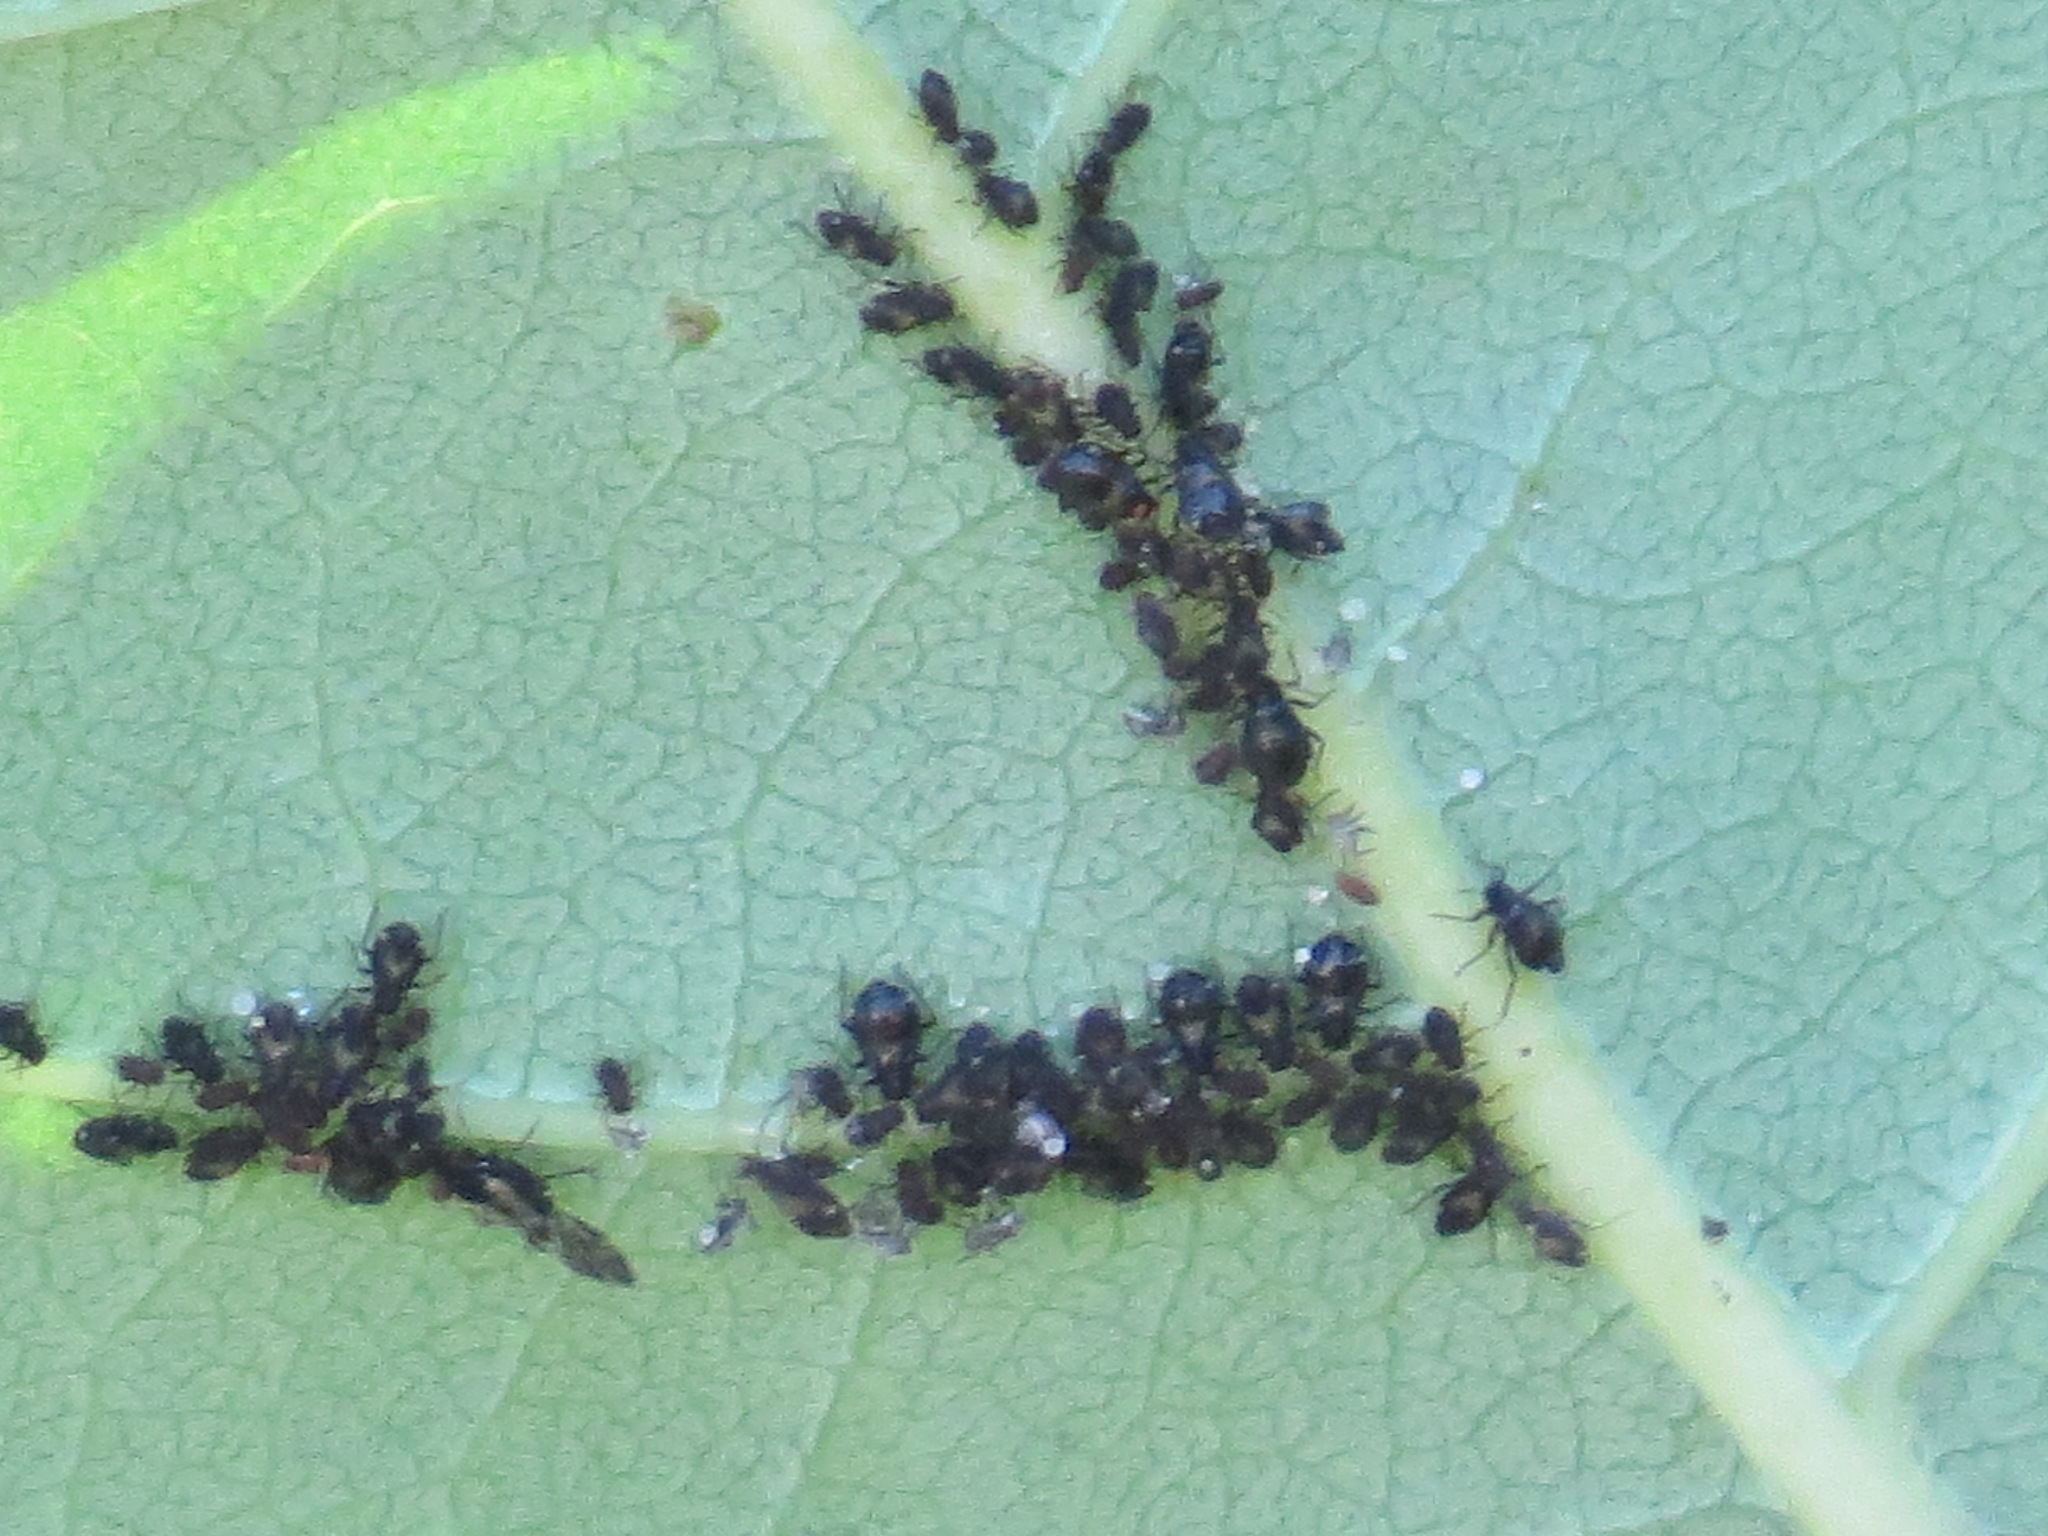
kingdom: Animalia
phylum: Arthropoda
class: Insecta
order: Hemiptera
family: Aphididae
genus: Chaitophorus
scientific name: Chaitophorus populicola
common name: Smokywinged poplar aphid
